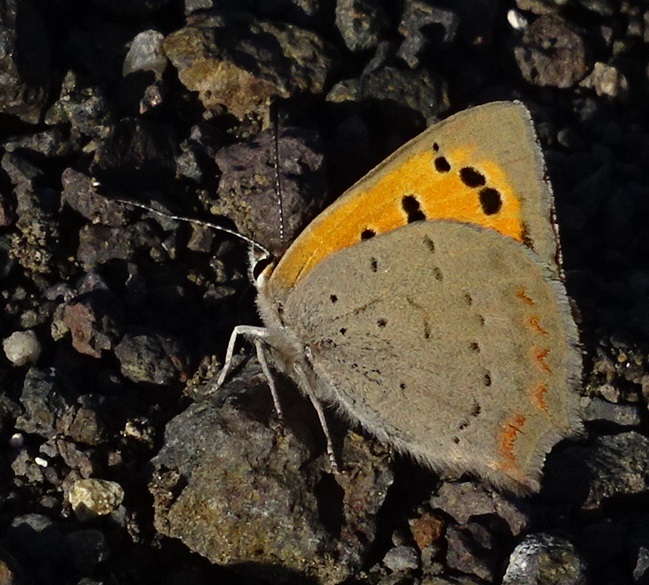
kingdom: Animalia
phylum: Arthropoda
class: Insecta
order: Lepidoptera
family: Lycaenidae
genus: Lycaena
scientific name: Lycaena phlaeas
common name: Small copper
